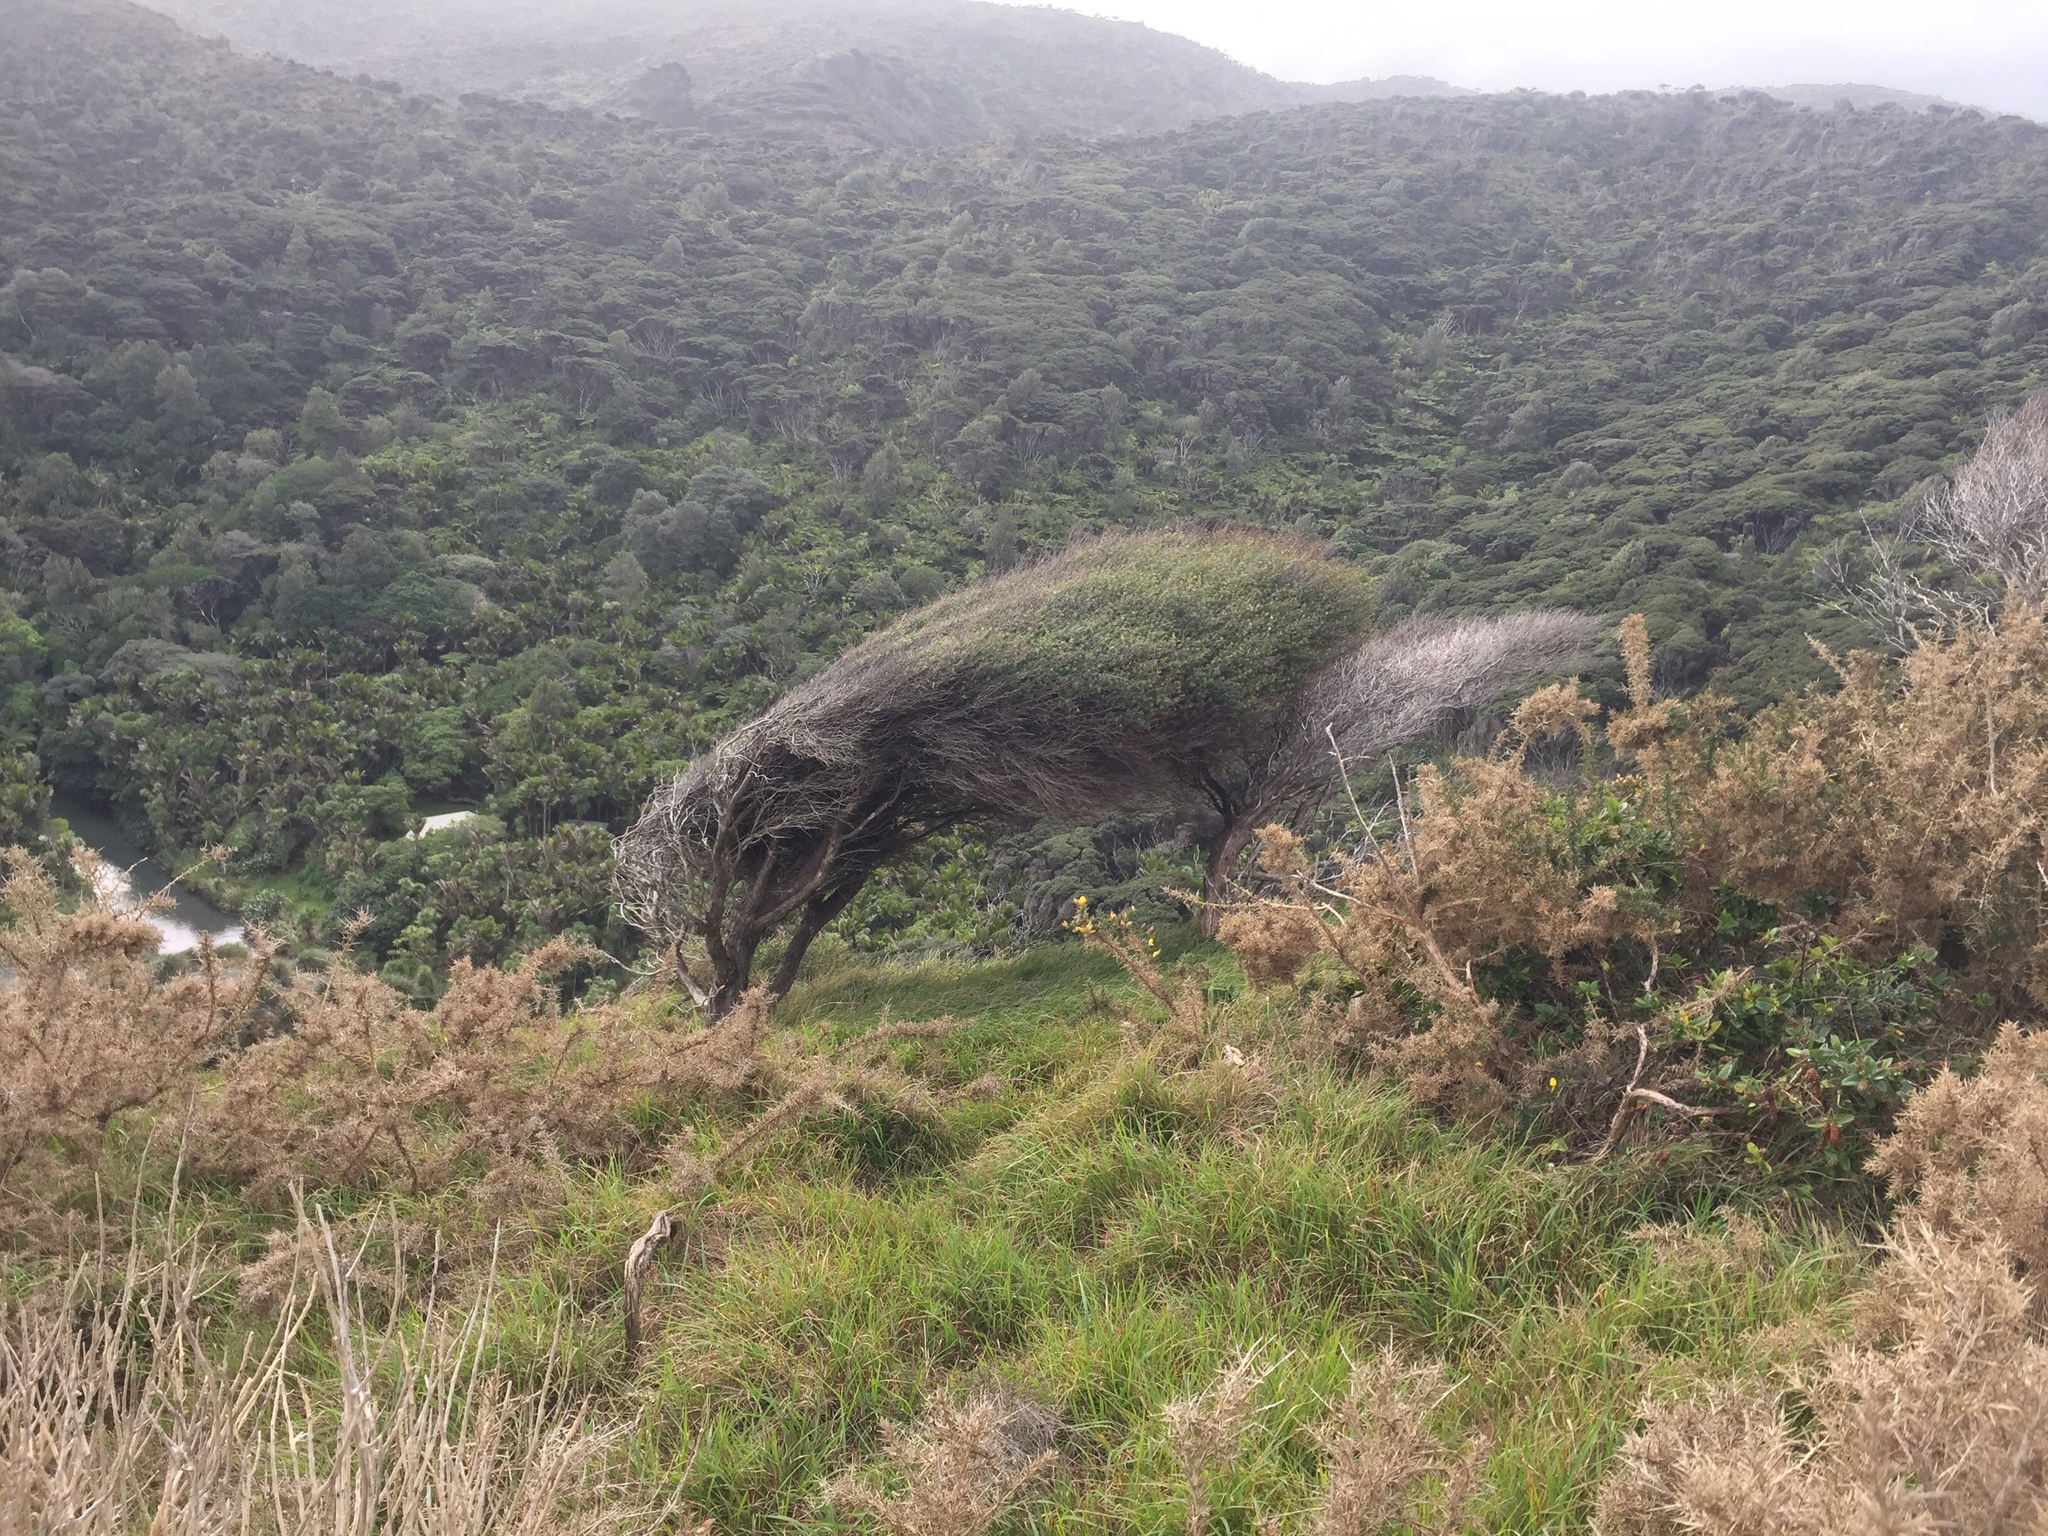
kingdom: Plantae
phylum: Tracheophyta
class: Magnoliopsida
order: Myrtales
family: Myrtaceae
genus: Leptospermum
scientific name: Leptospermum scoparium
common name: Broom tea-tree
